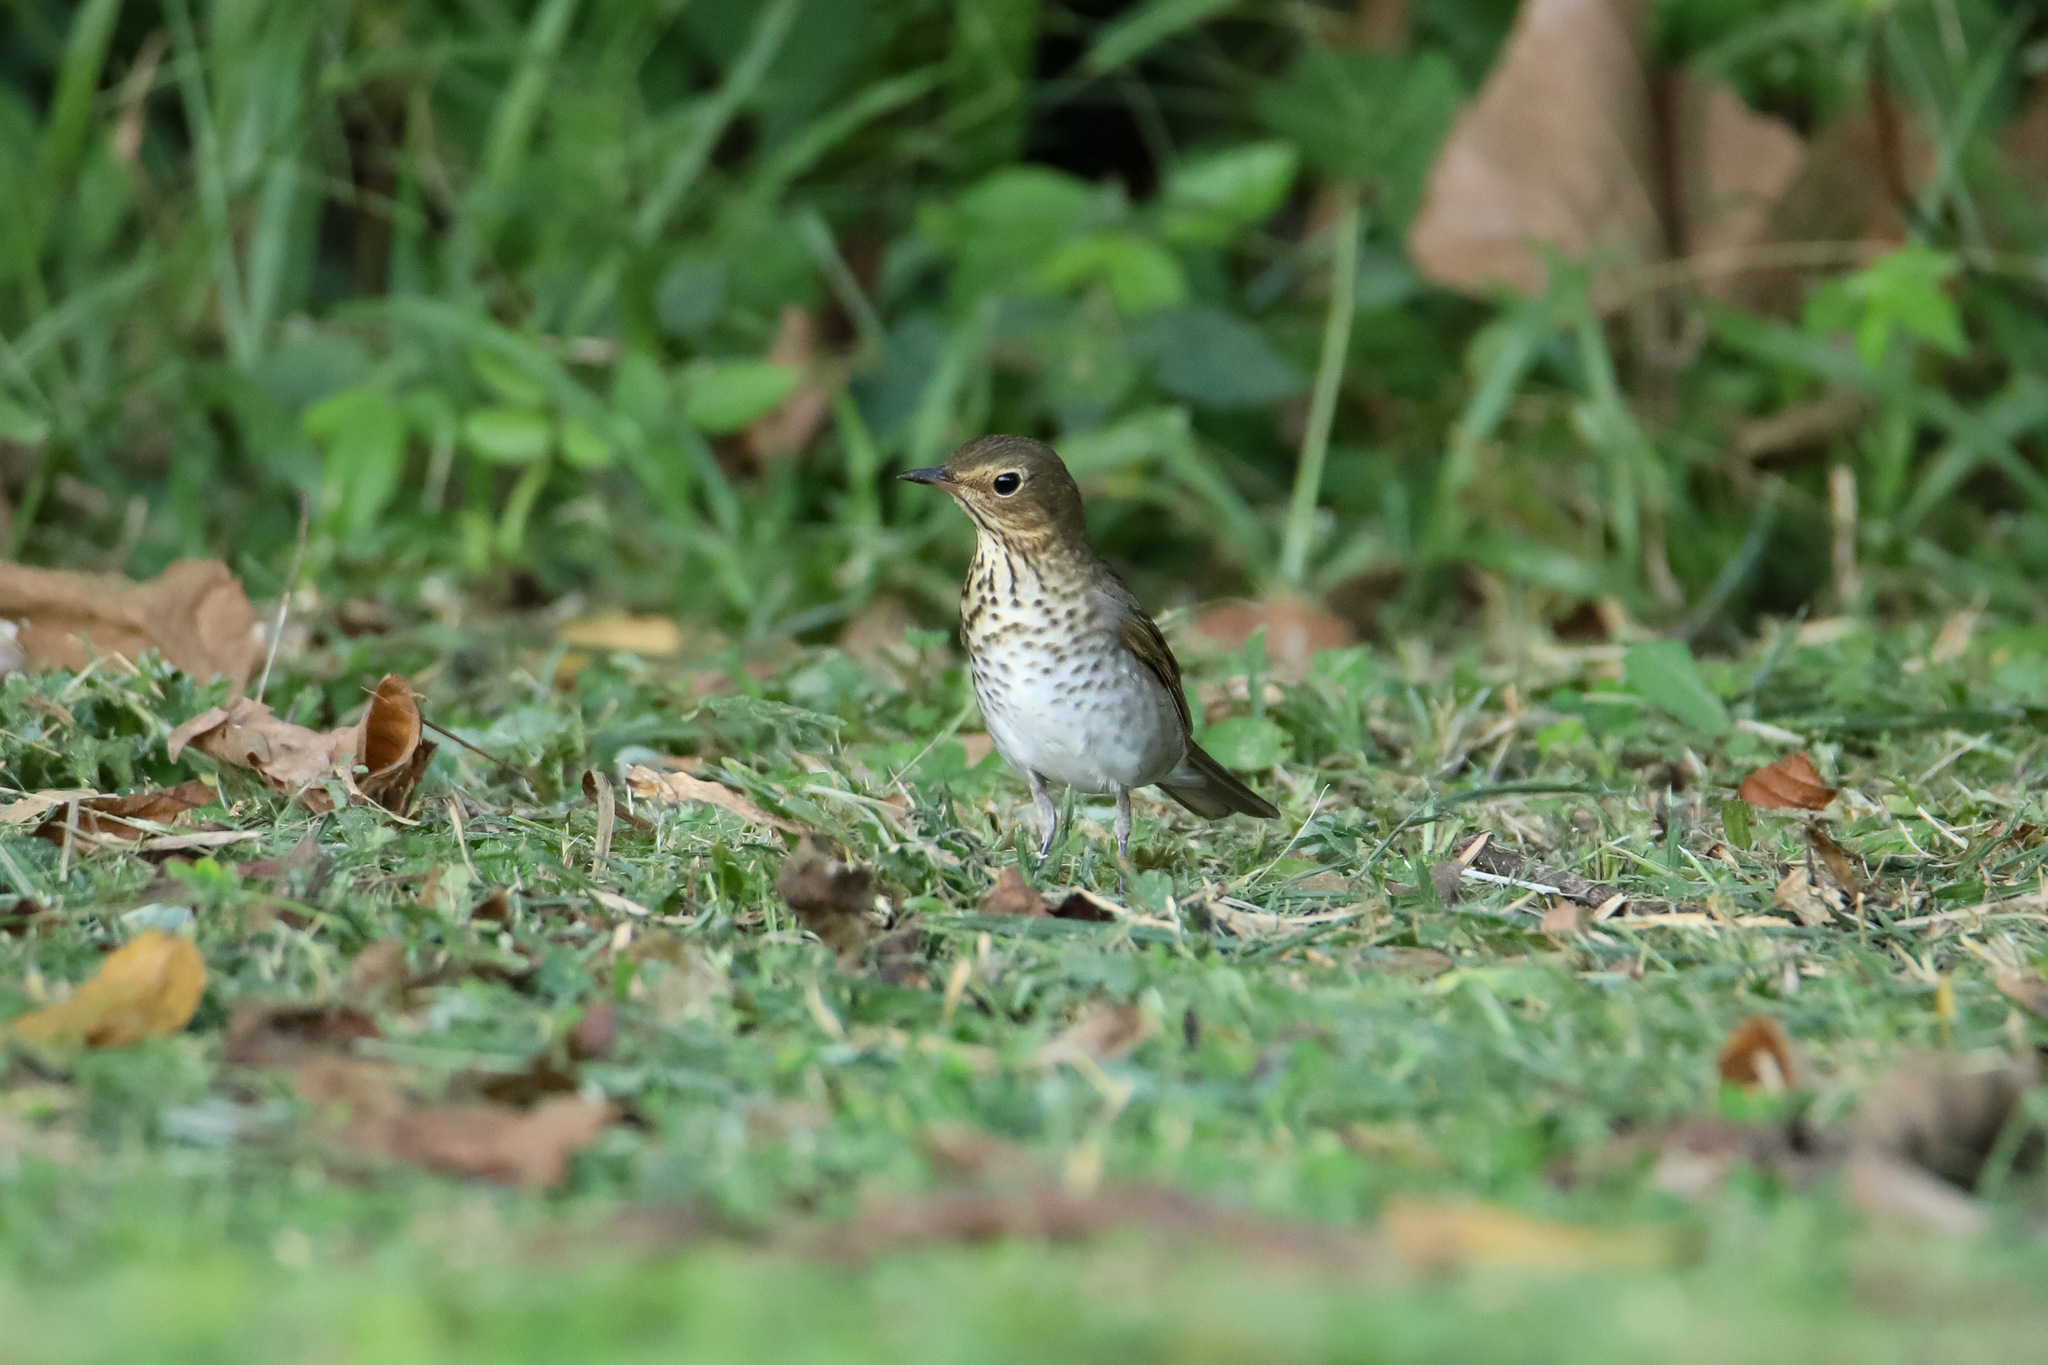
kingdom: Animalia
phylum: Chordata
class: Aves
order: Passeriformes
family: Turdidae
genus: Catharus
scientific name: Catharus ustulatus
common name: Swainson's thrush
